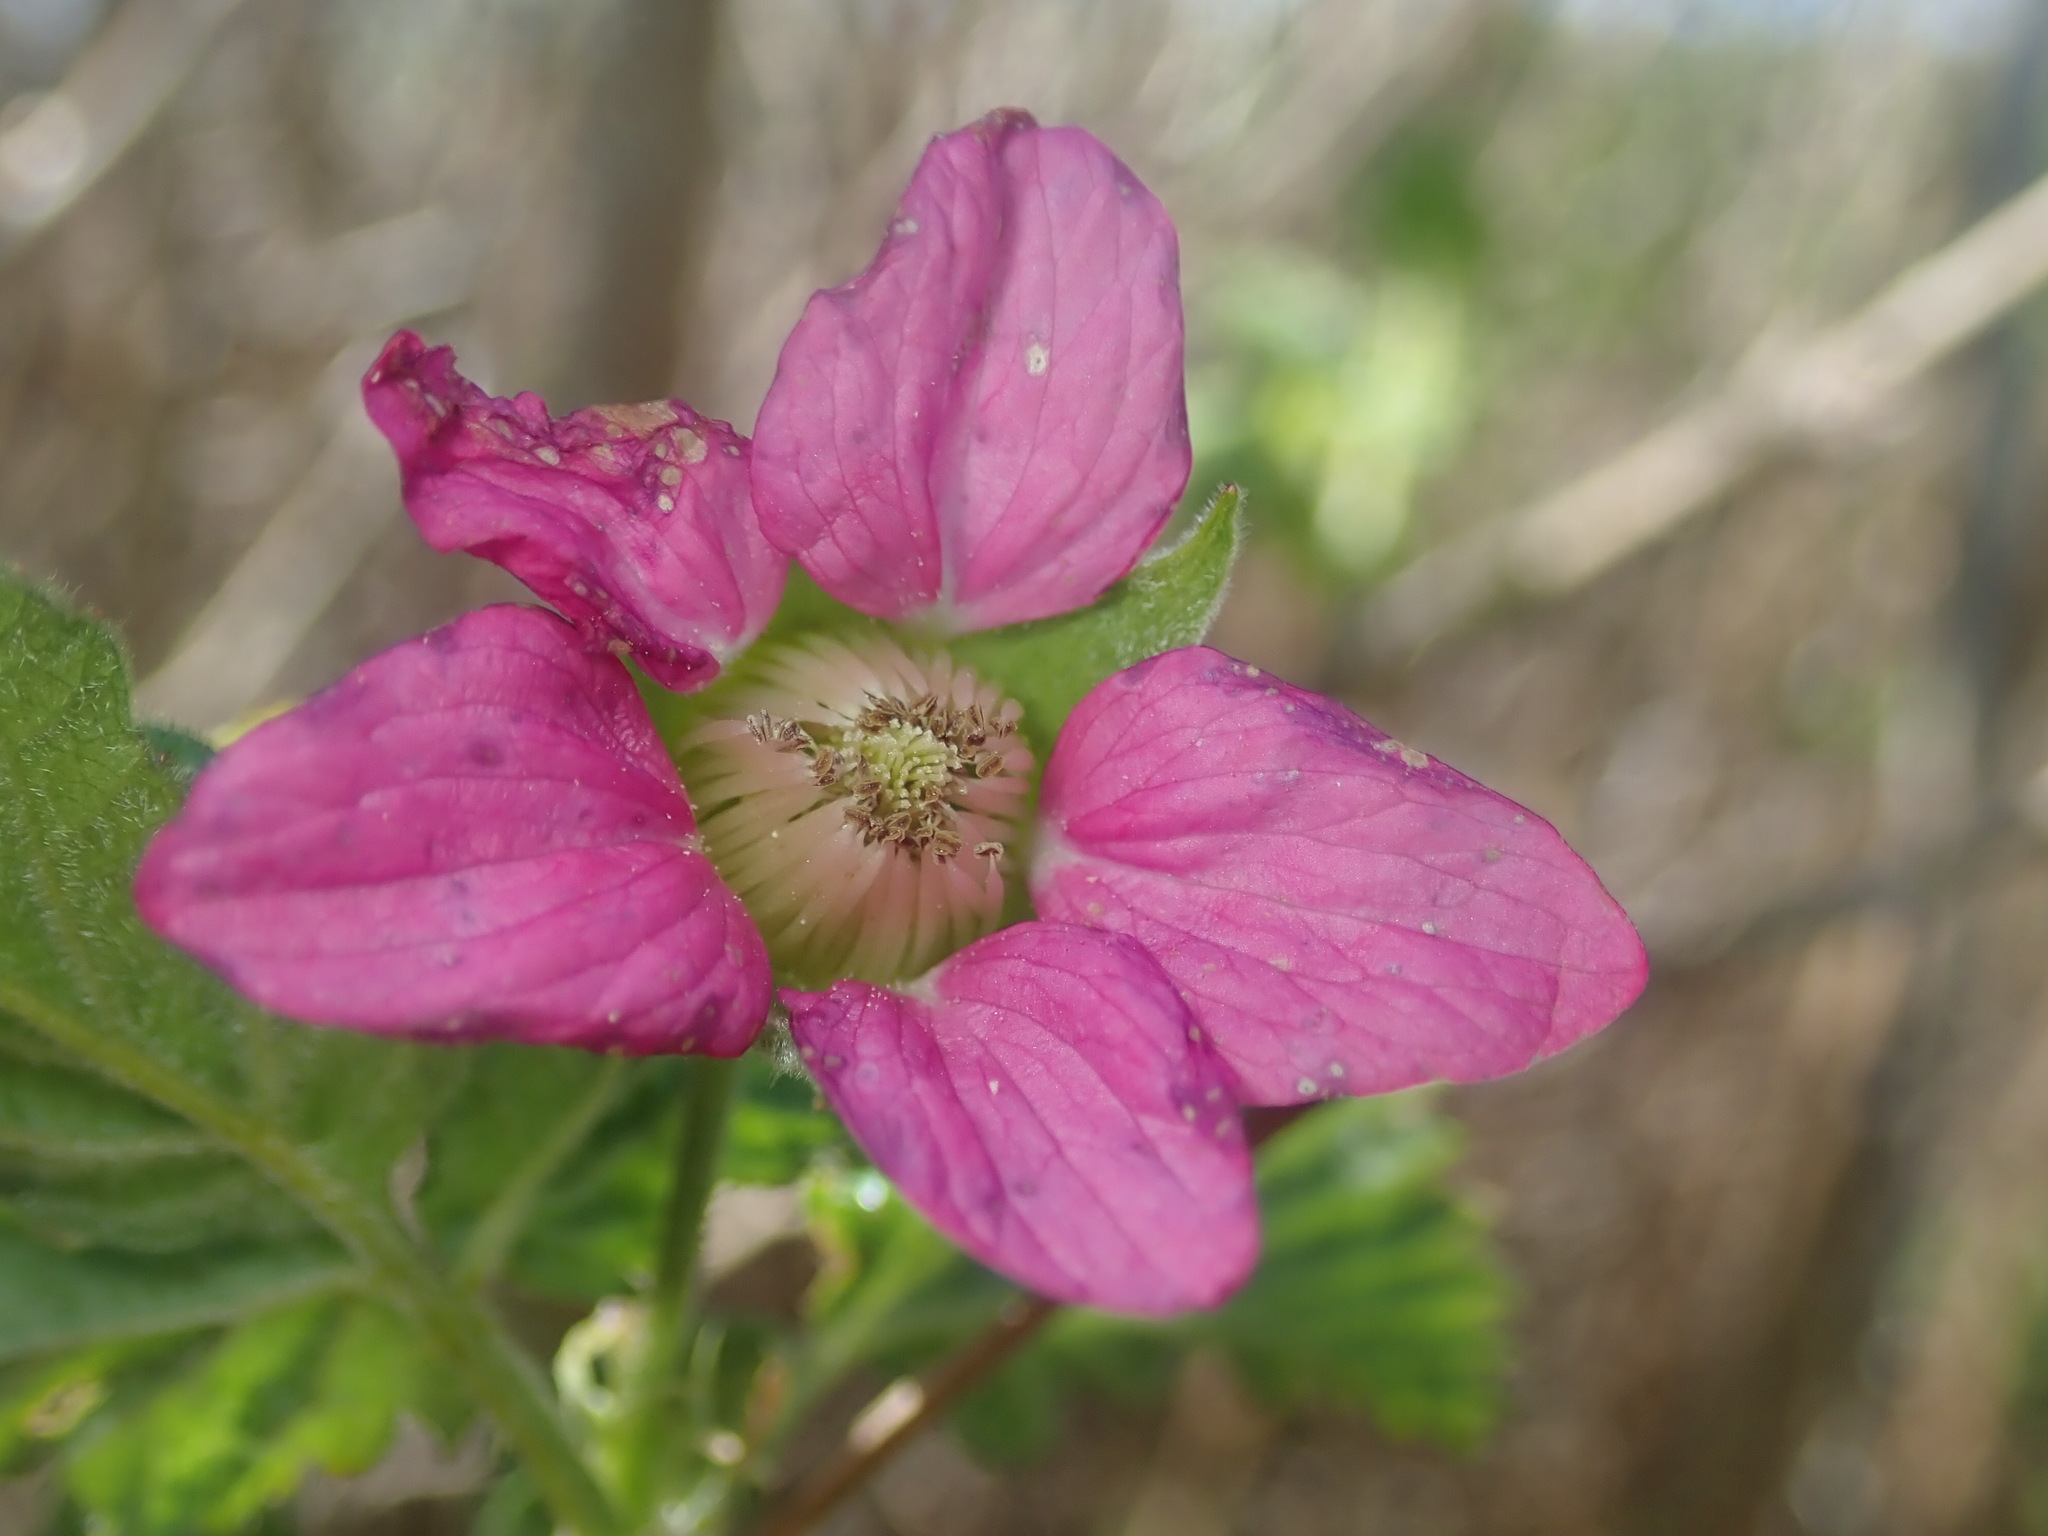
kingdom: Plantae
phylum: Tracheophyta
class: Magnoliopsida
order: Rosales
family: Rosaceae
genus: Rubus
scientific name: Rubus spectabilis
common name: Salmonberry
